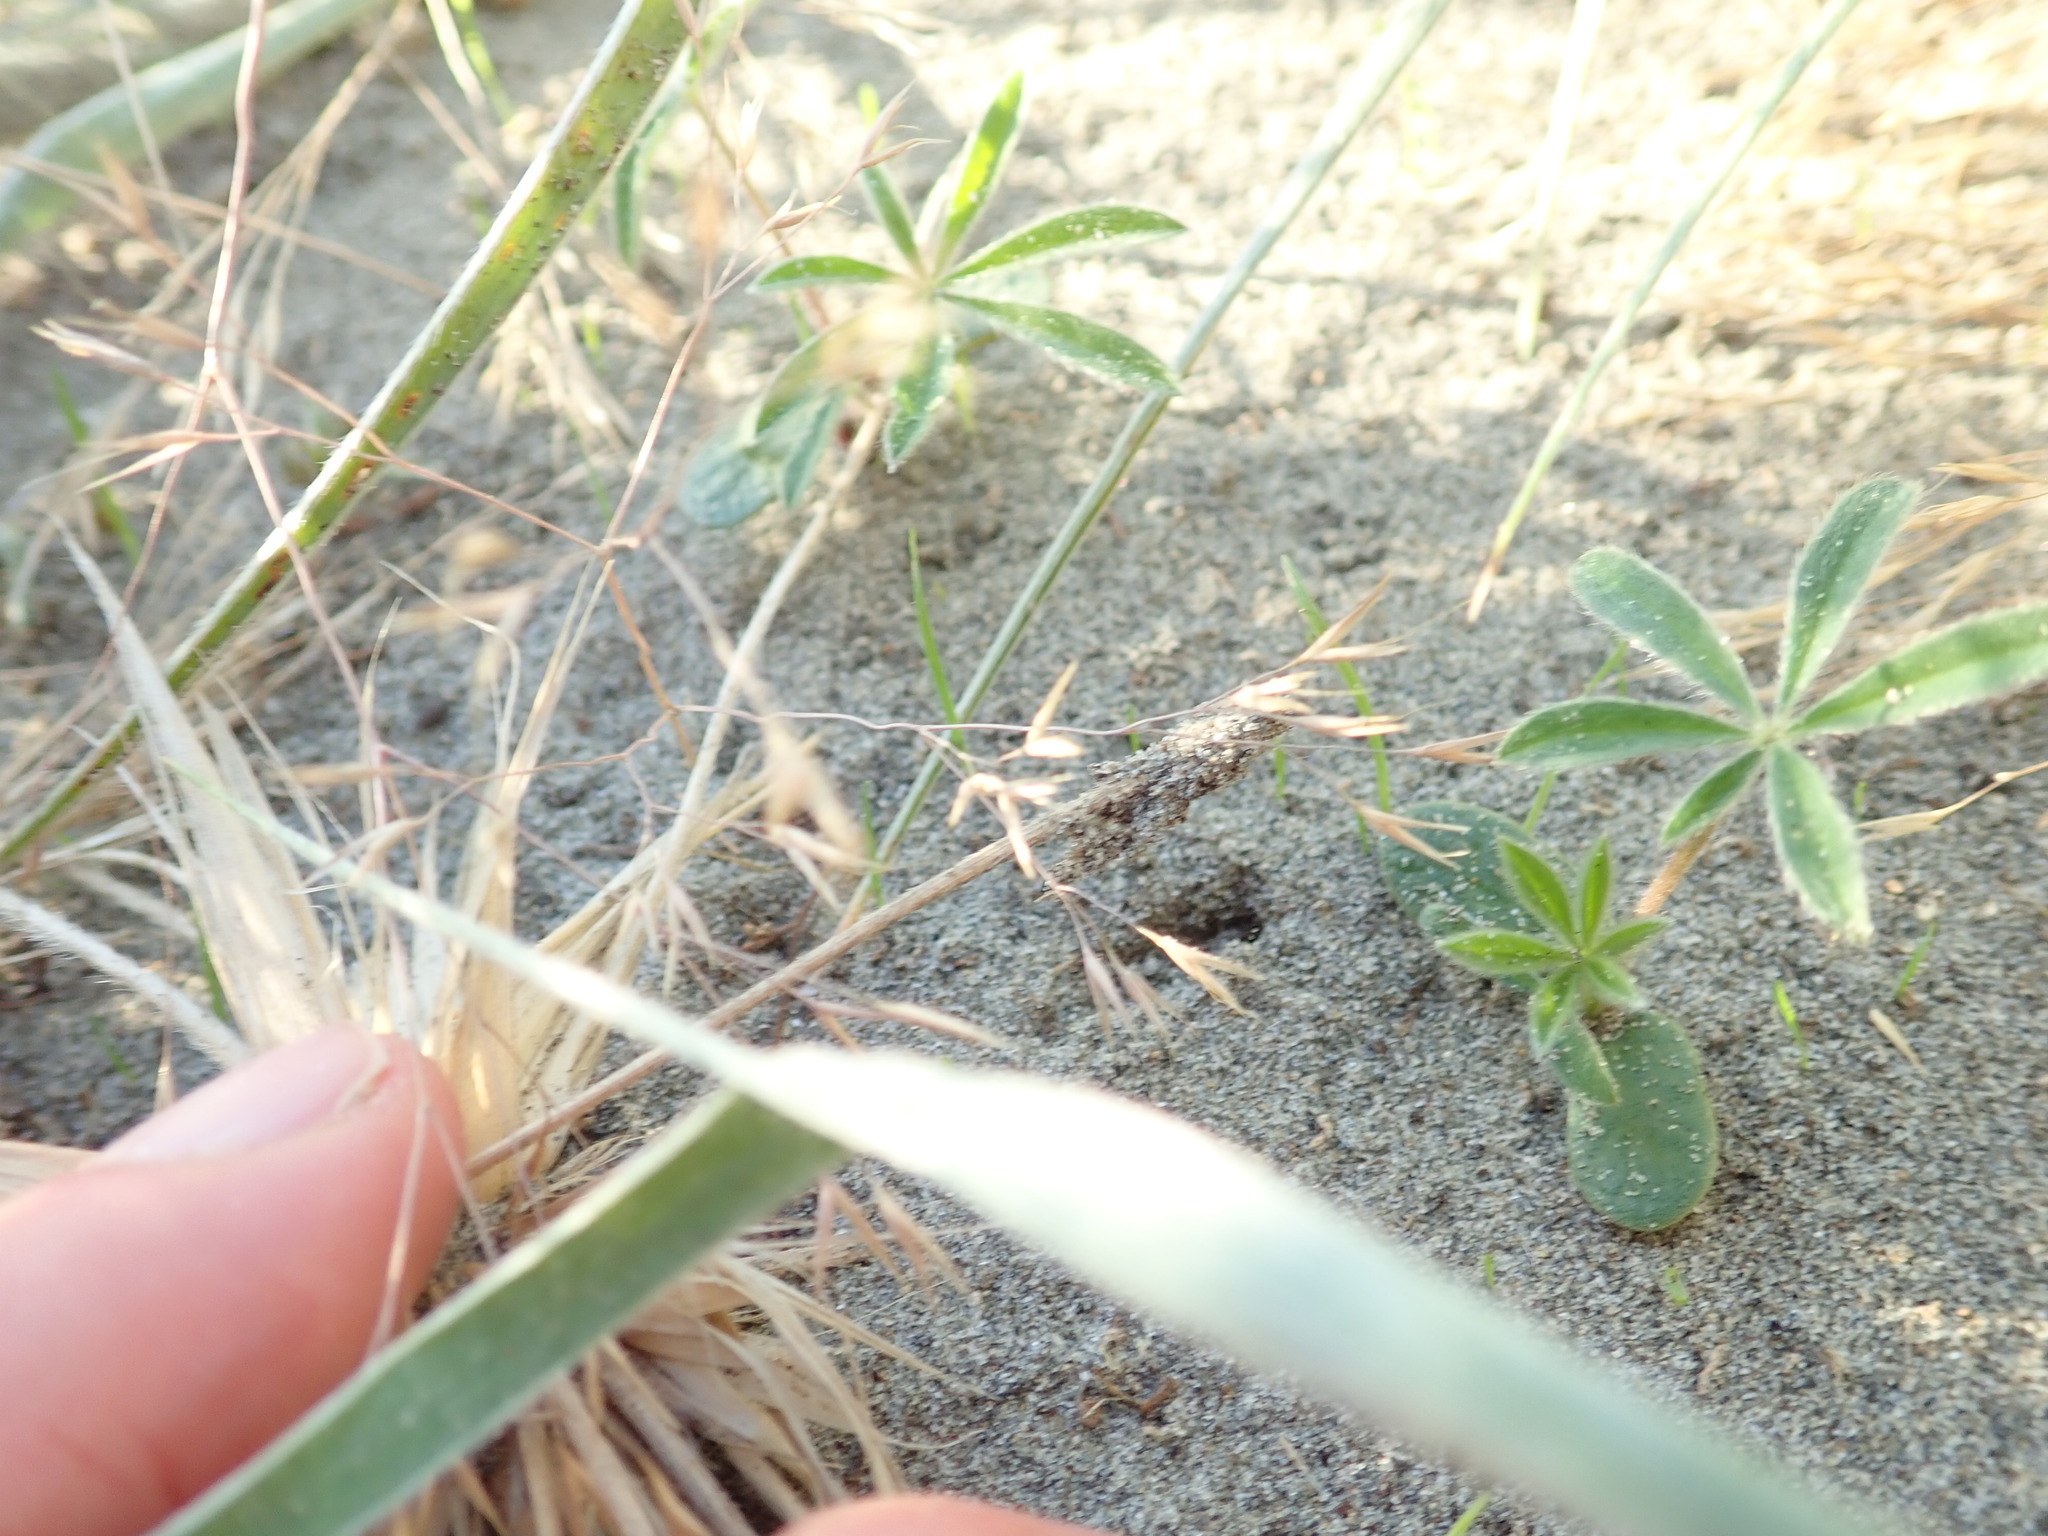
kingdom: Plantae
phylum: Tracheophyta
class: Magnoliopsida
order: Fabales
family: Fabaceae
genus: Lupinus
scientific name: Lupinus arboreus
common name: Yellow bush lupine
